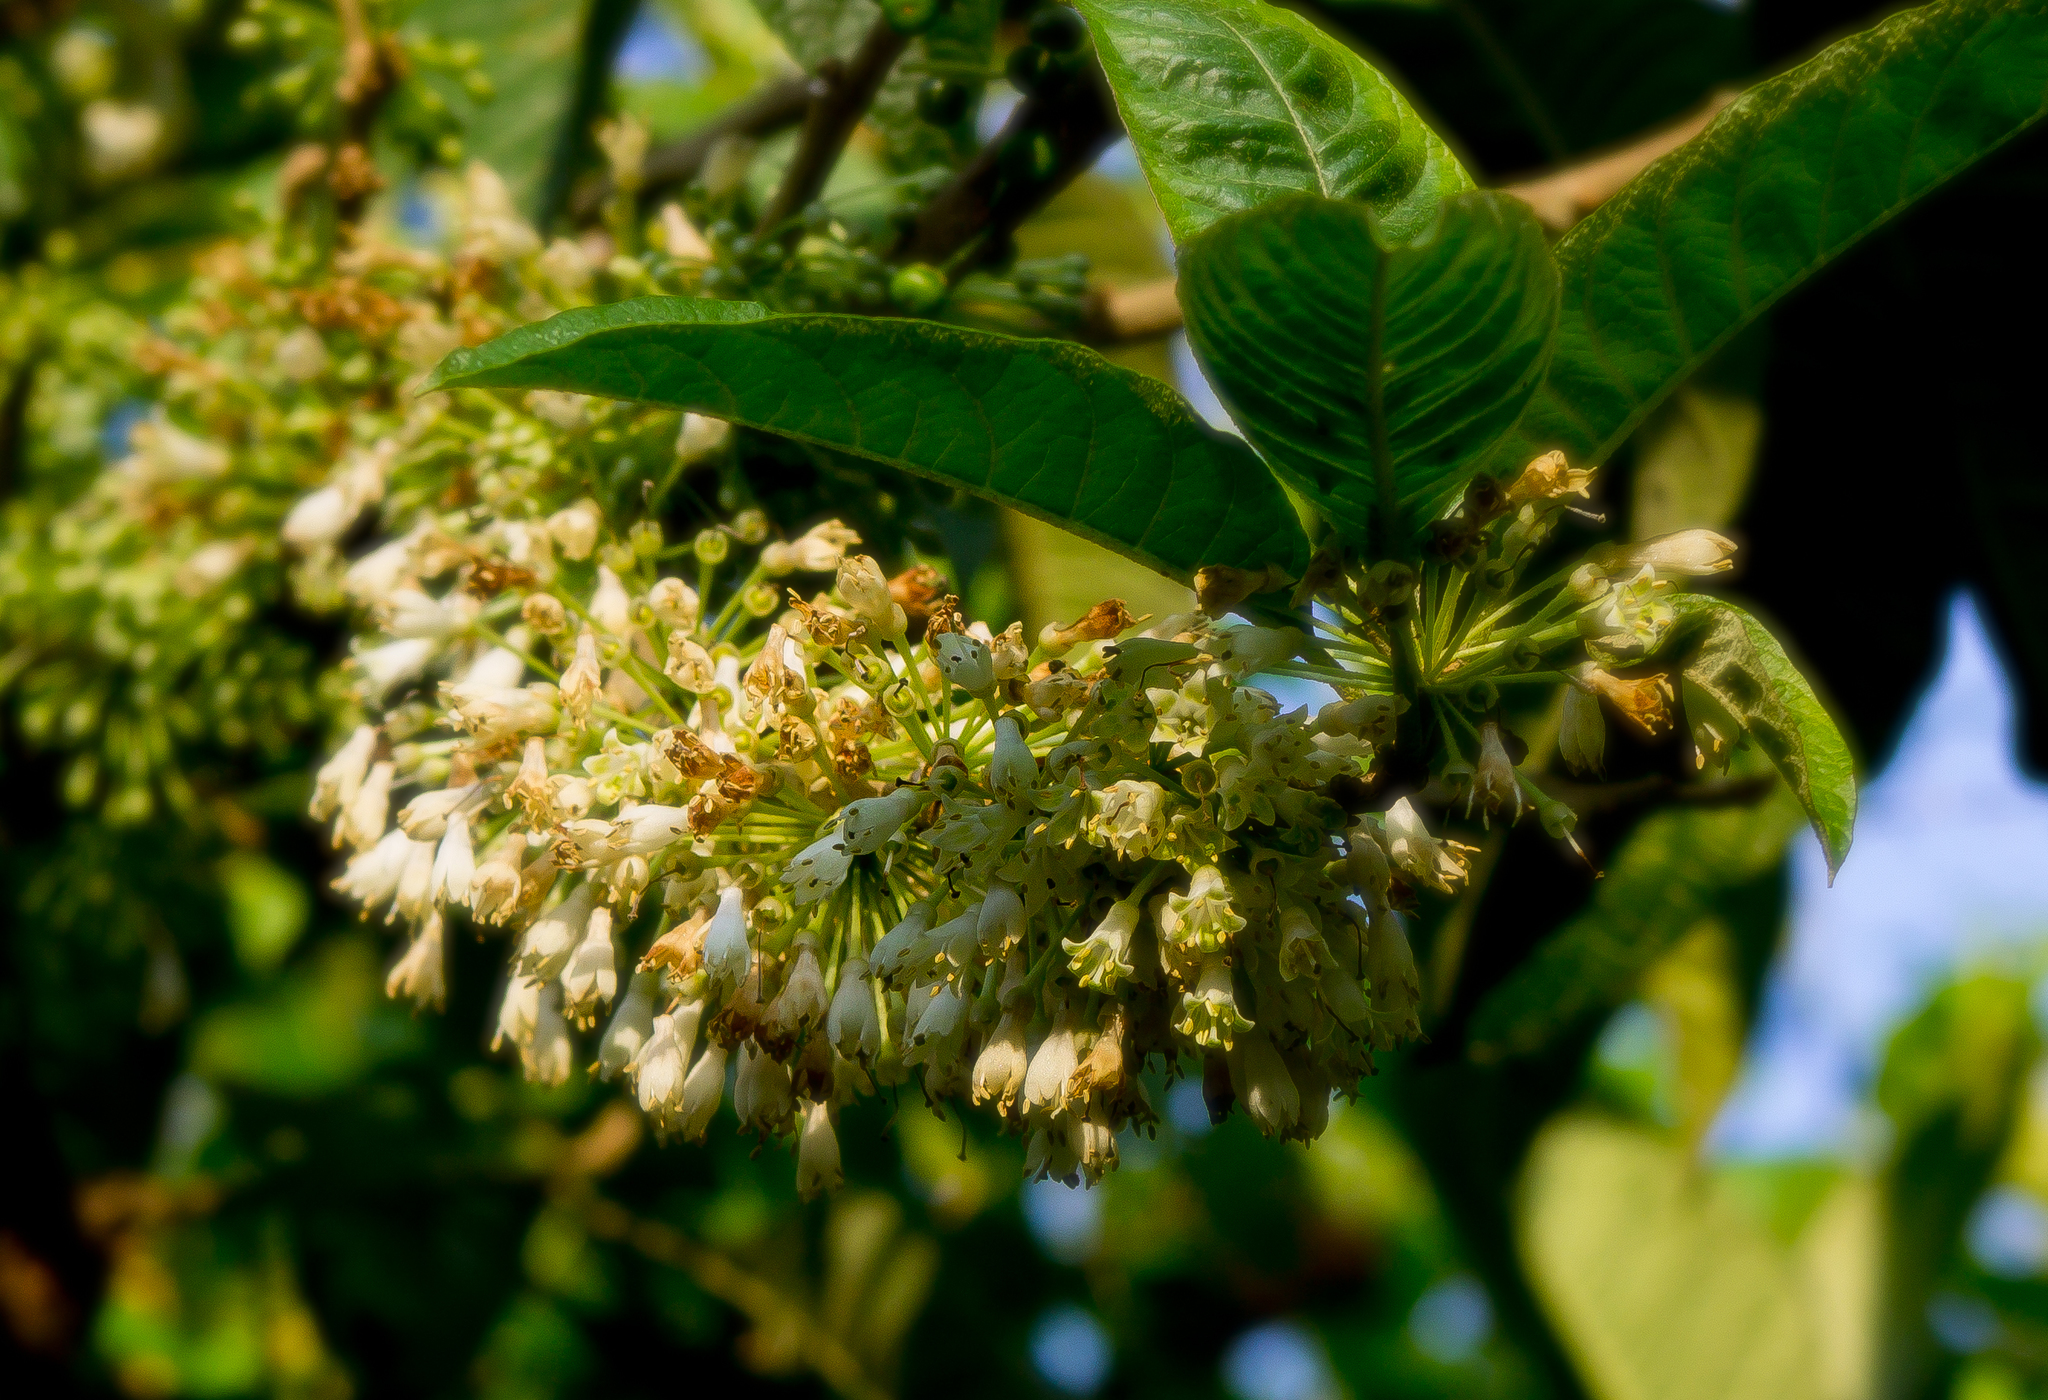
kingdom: Plantae
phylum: Tracheophyta
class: Magnoliopsida
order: Solanales
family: Solanaceae
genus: Iochroma
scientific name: Iochroma arborescens
